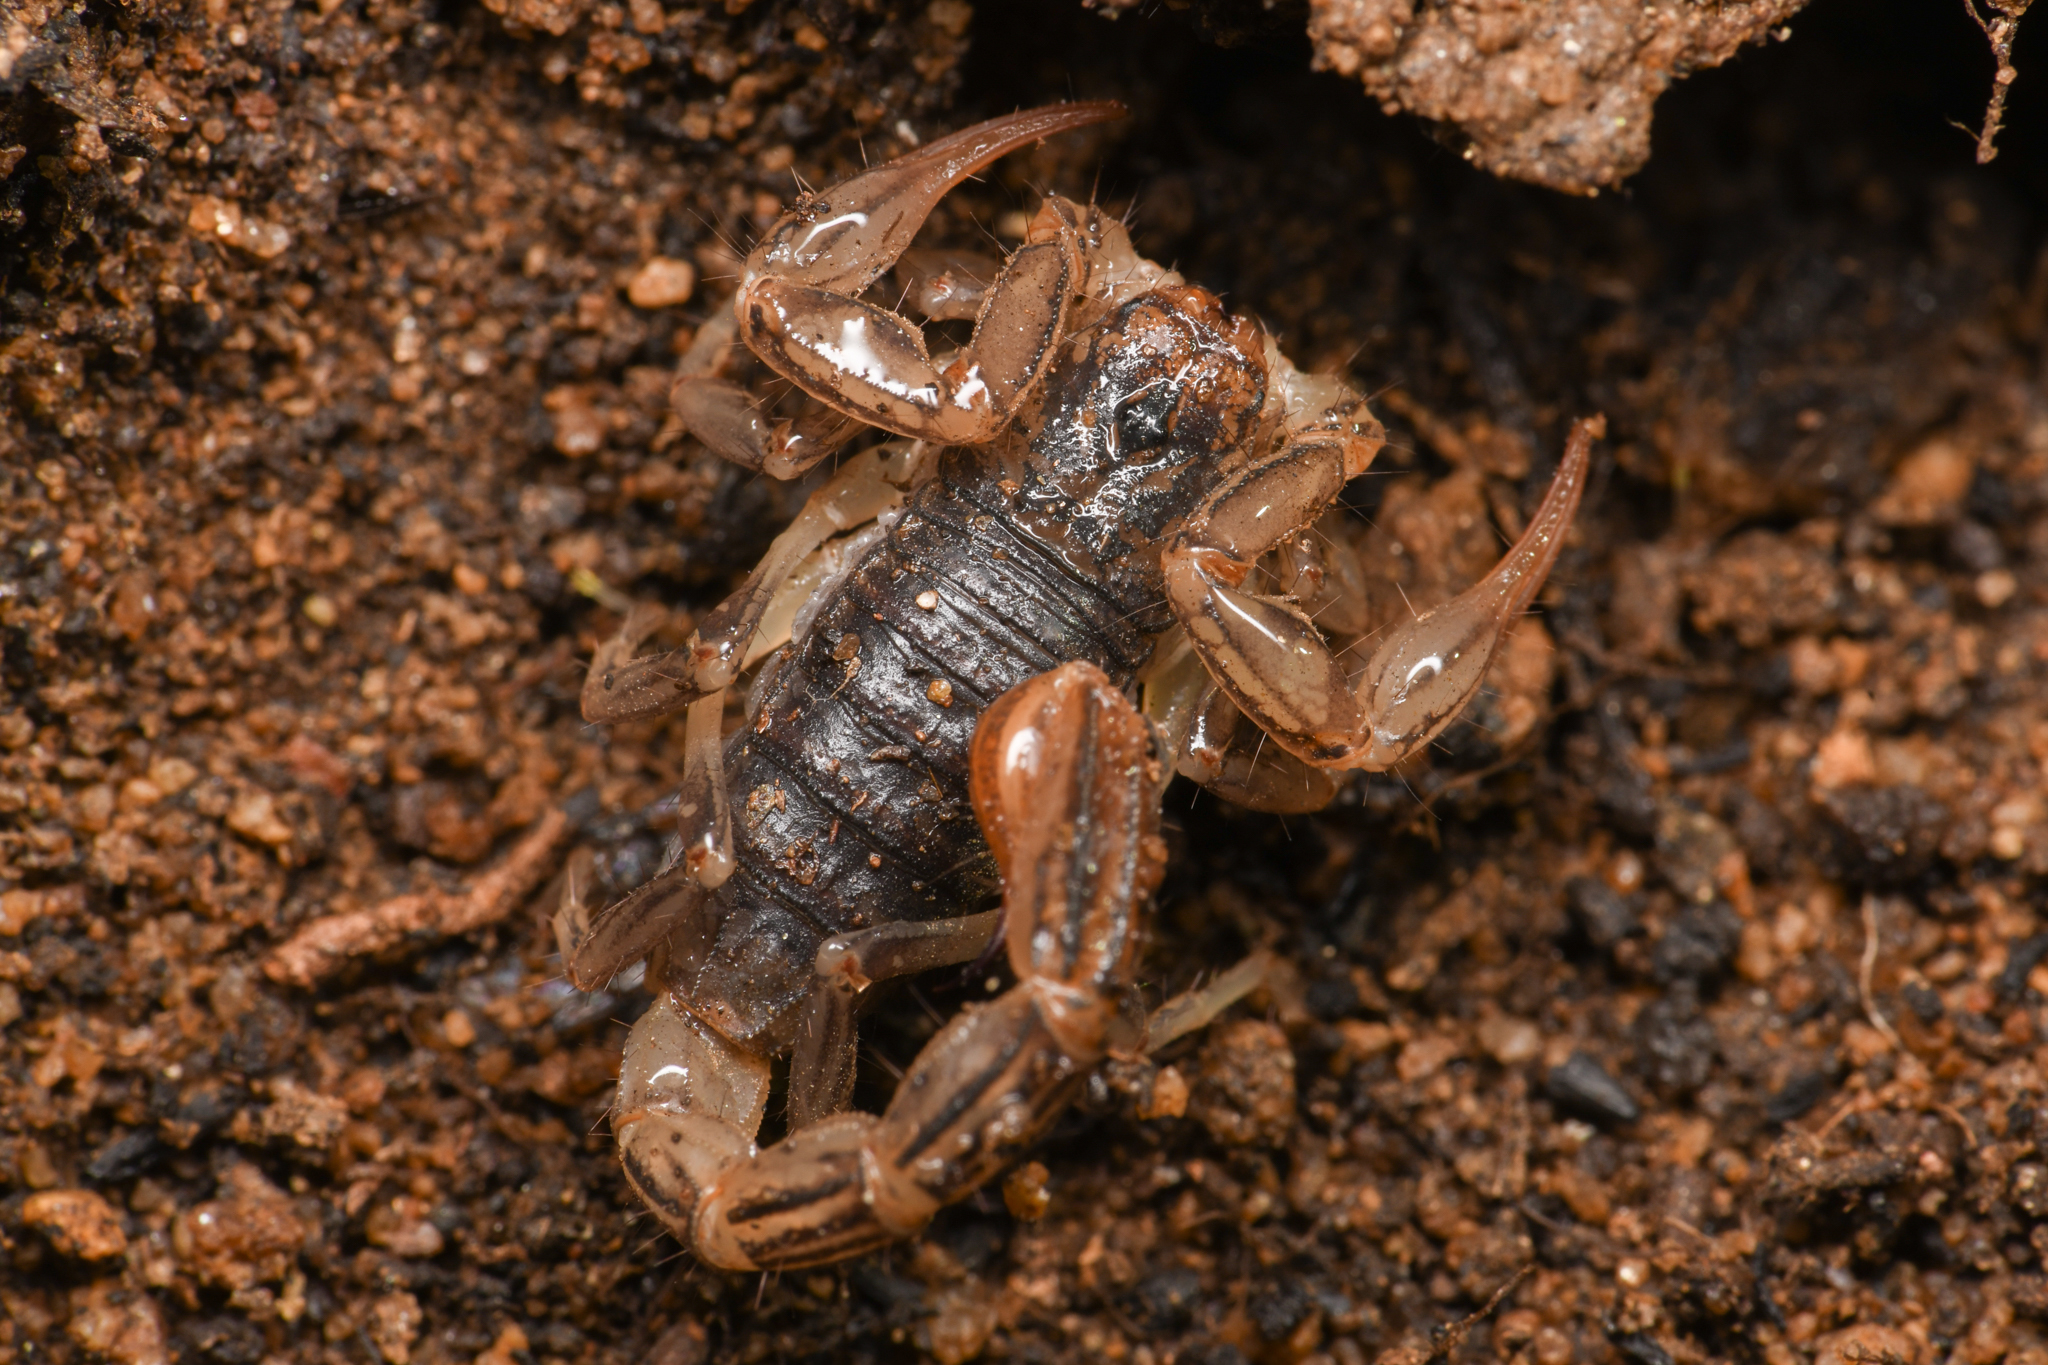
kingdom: Animalia
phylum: Arthropoda
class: Arachnida
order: Scorpiones
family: Vaejovidae
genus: Paruroctonus
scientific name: Paruroctonus silvestrii
